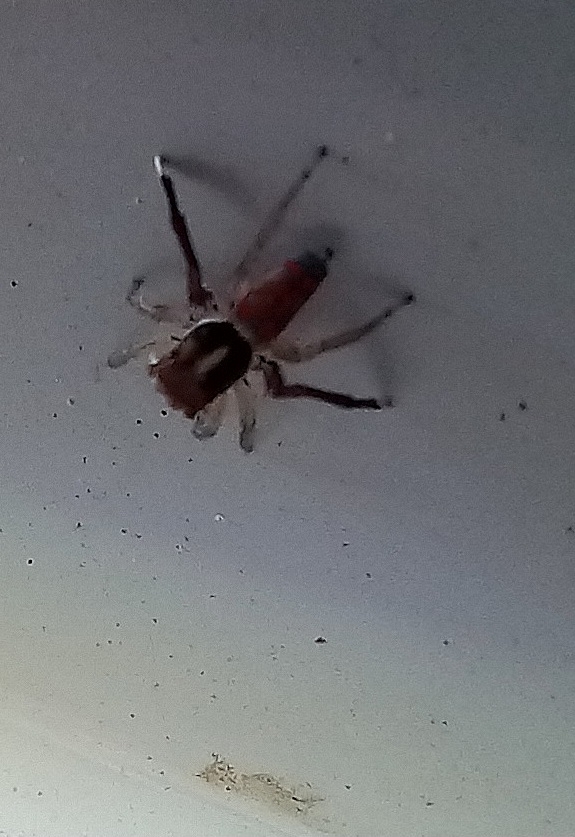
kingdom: Animalia
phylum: Arthropoda
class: Arachnida
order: Araneae
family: Salticidae
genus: Maratus
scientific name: Maratus pavonis
